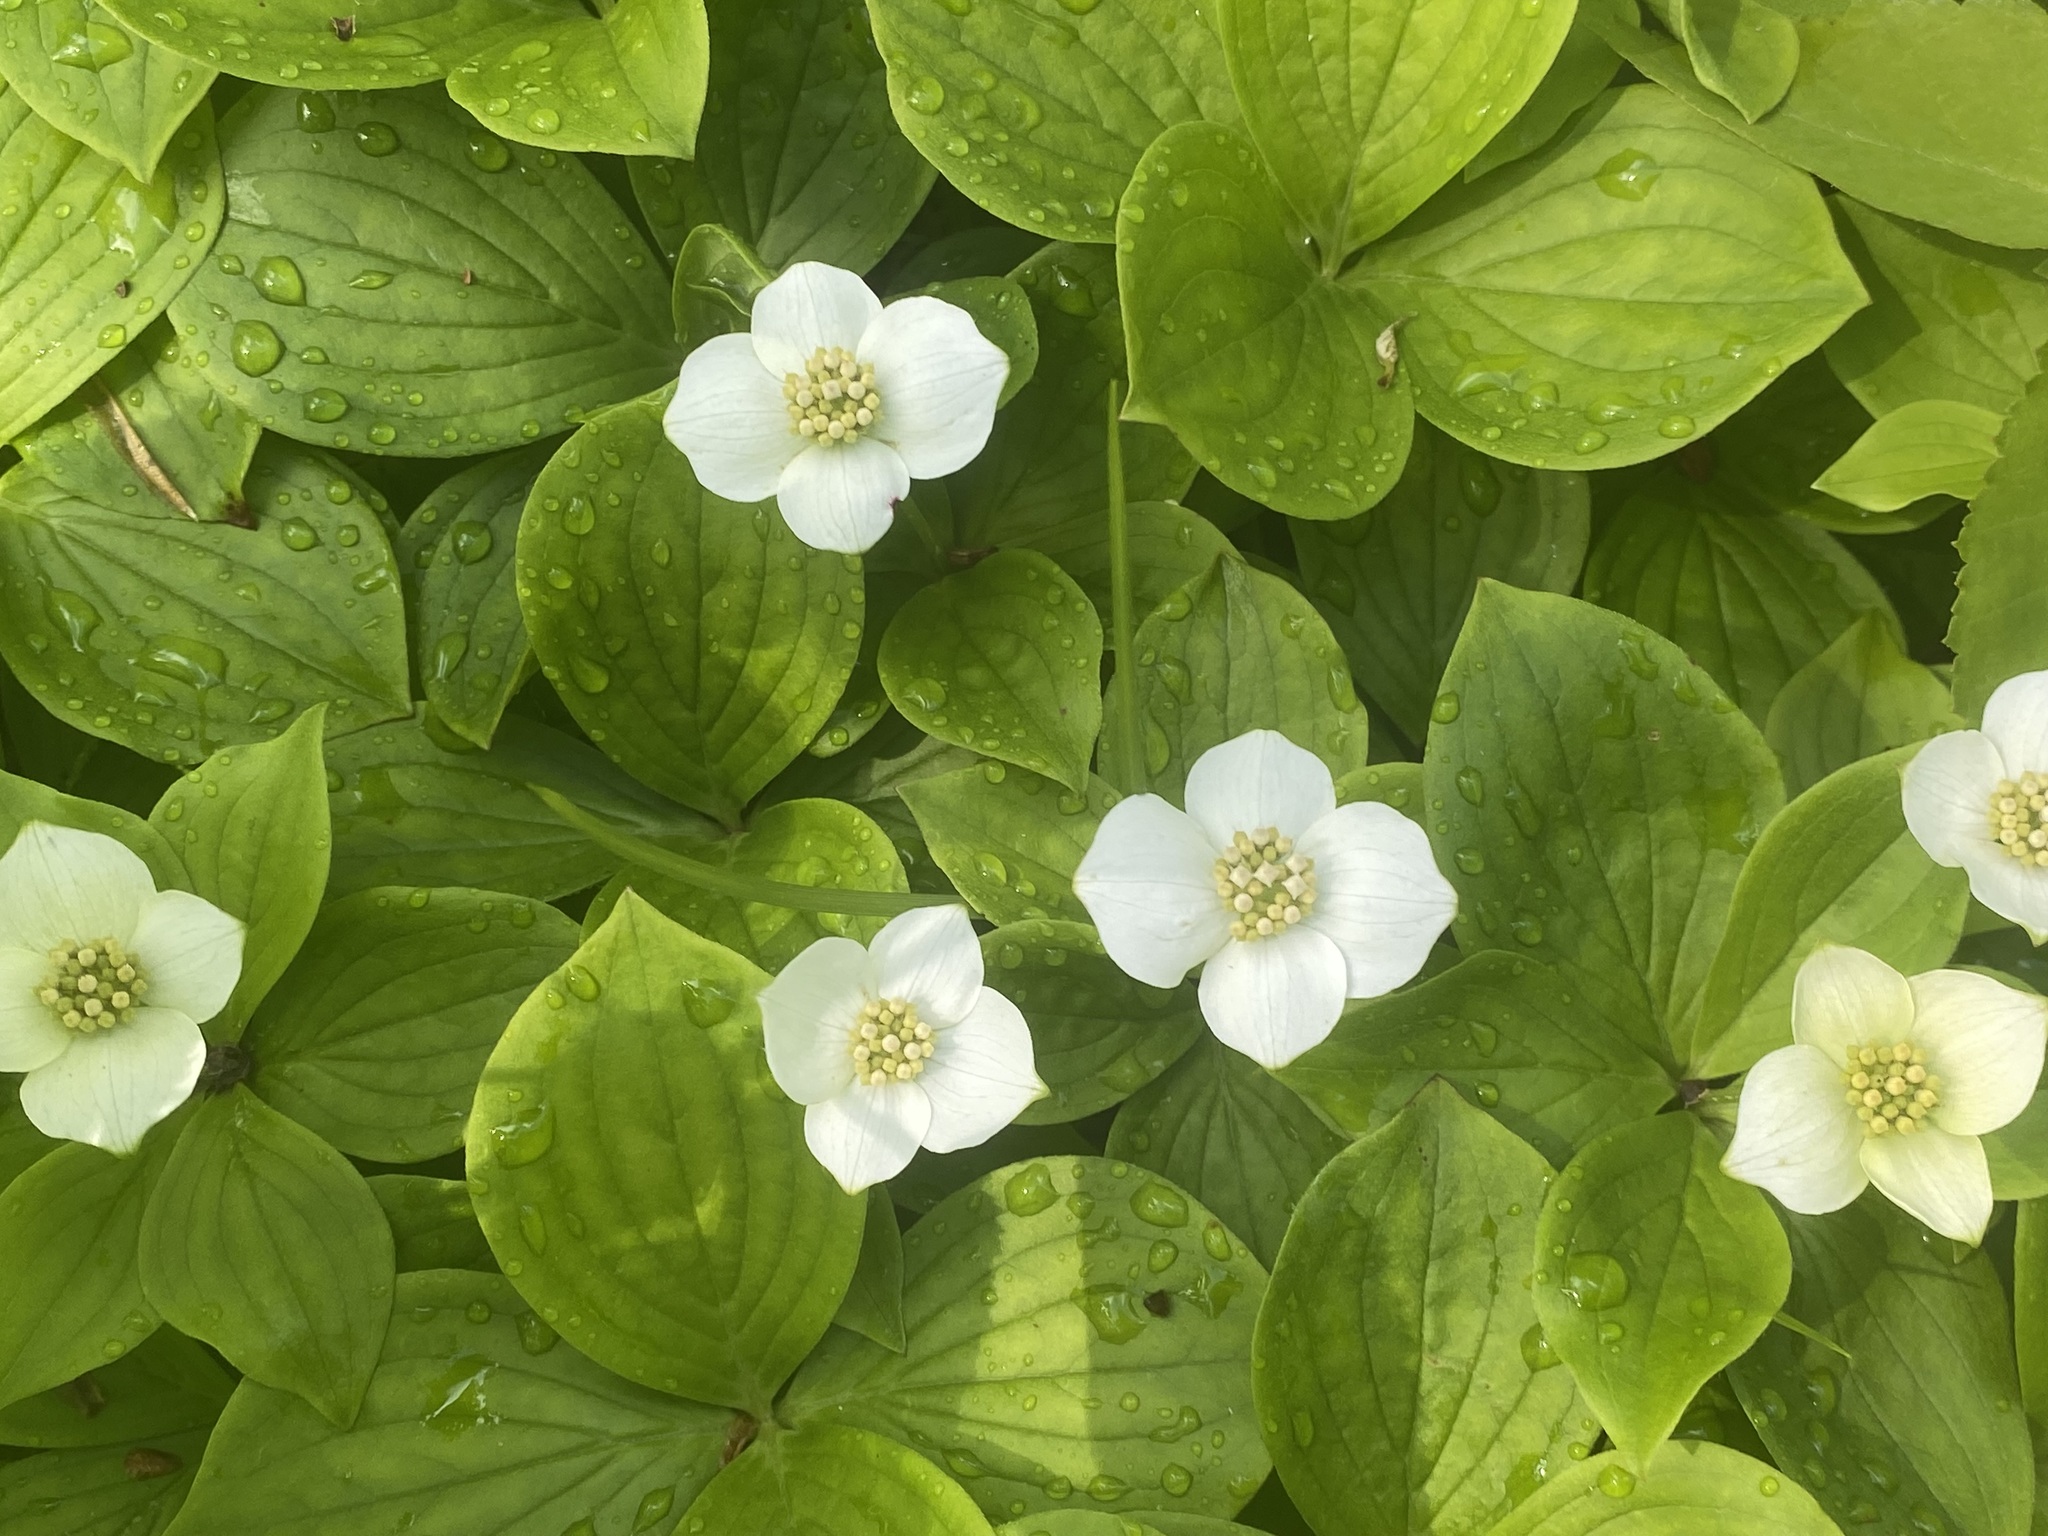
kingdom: Plantae
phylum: Tracheophyta
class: Magnoliopsida
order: Cornales
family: Cornaceae
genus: Cornus
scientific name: Cornus canadensis
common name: Creeping dogwood
